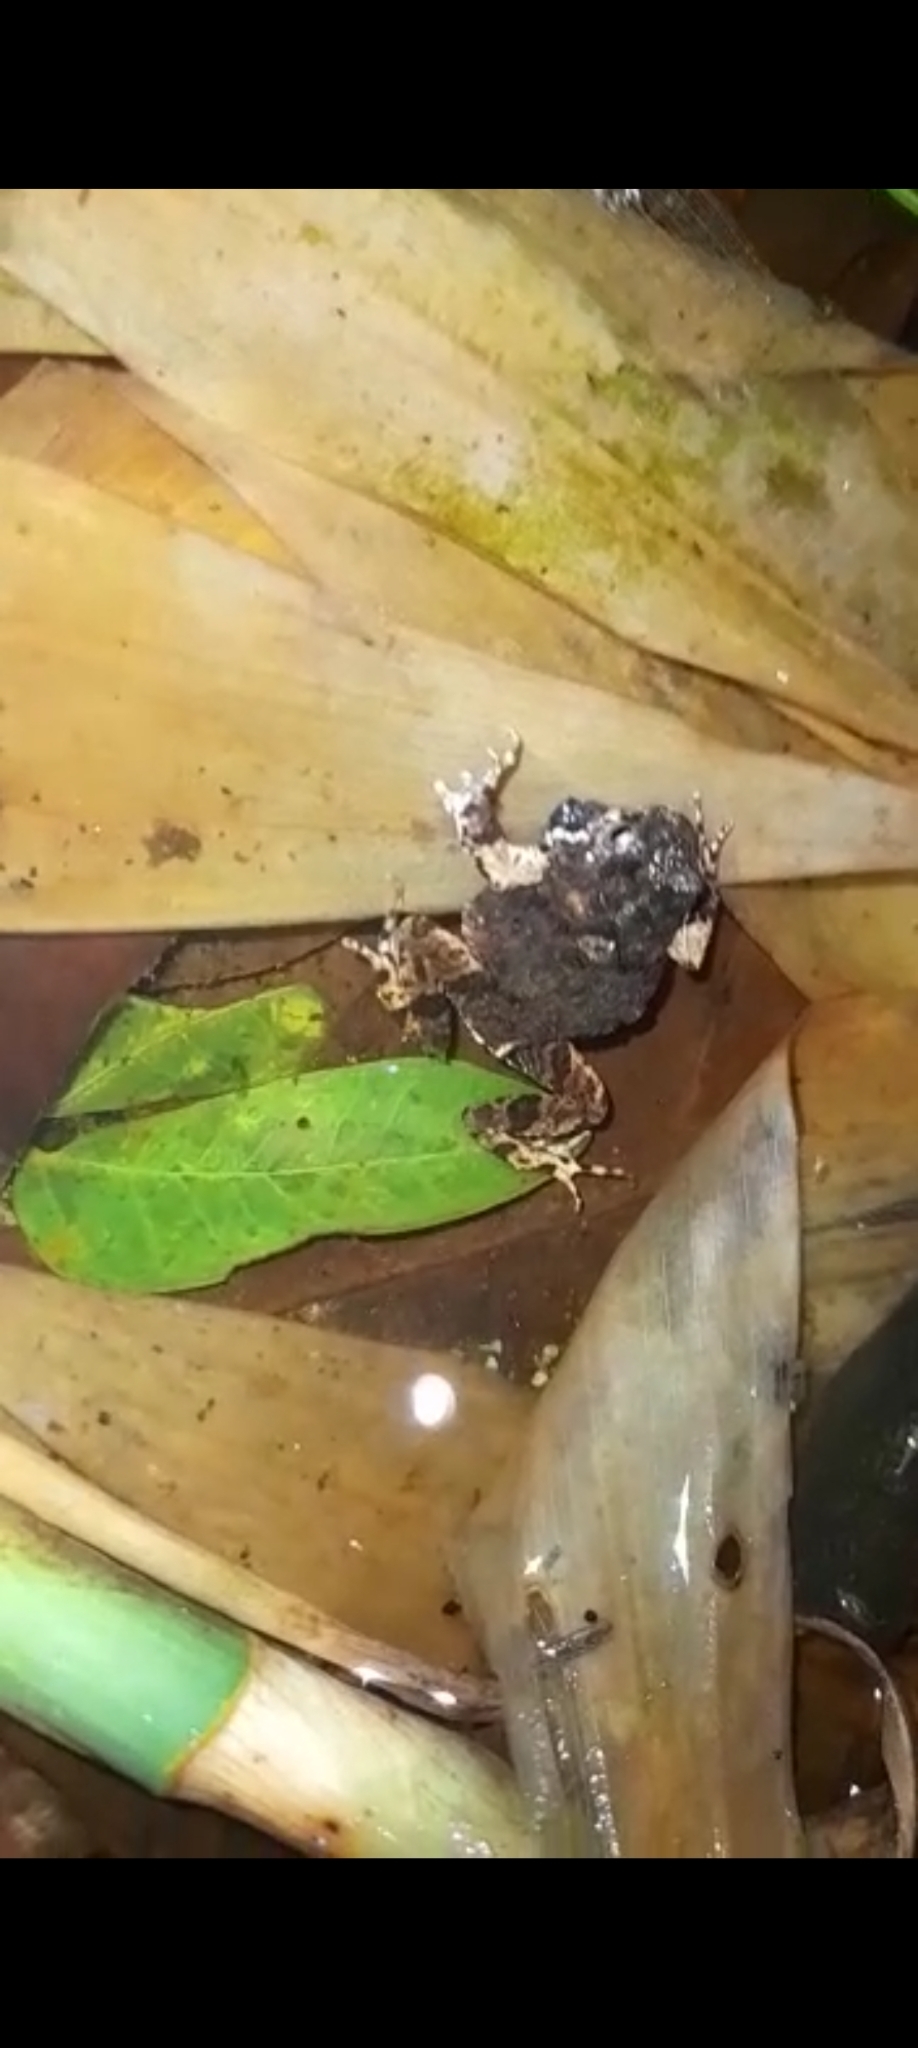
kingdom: Animalia
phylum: Chordata
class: Amphibia
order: Anura
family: Leptodactylidae
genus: Engystomops
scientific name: Engystomops pustulosus
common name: Tungara frog
